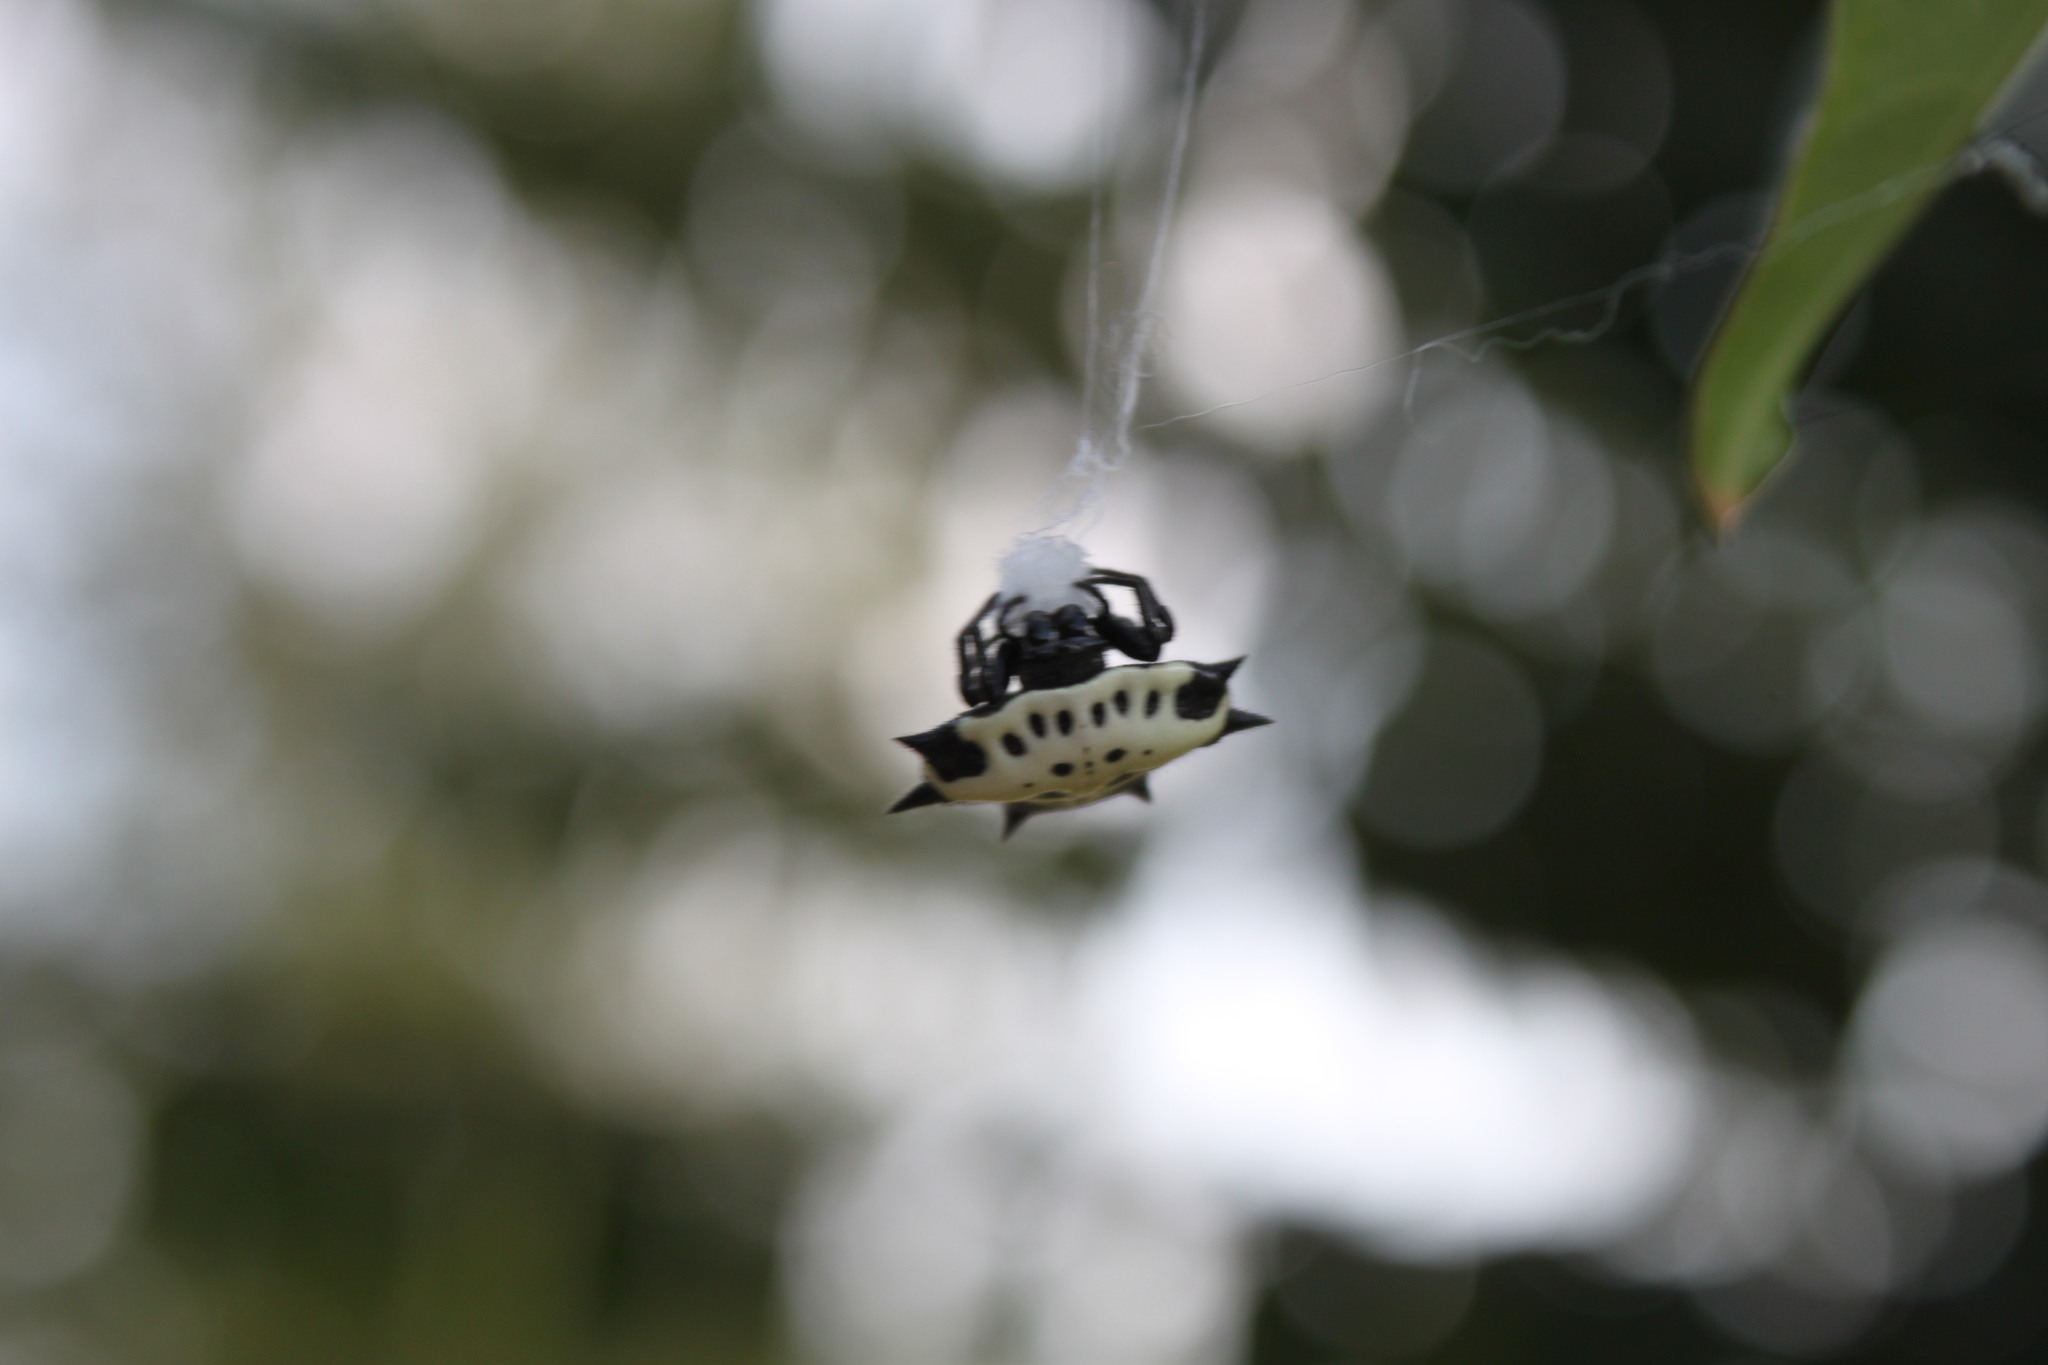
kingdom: Animalia
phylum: Arthropoda
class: Arachnida
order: Araneae
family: Araneidae
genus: Gasteracantha
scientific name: Gasteracantha cancriformis
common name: Orb weavers
